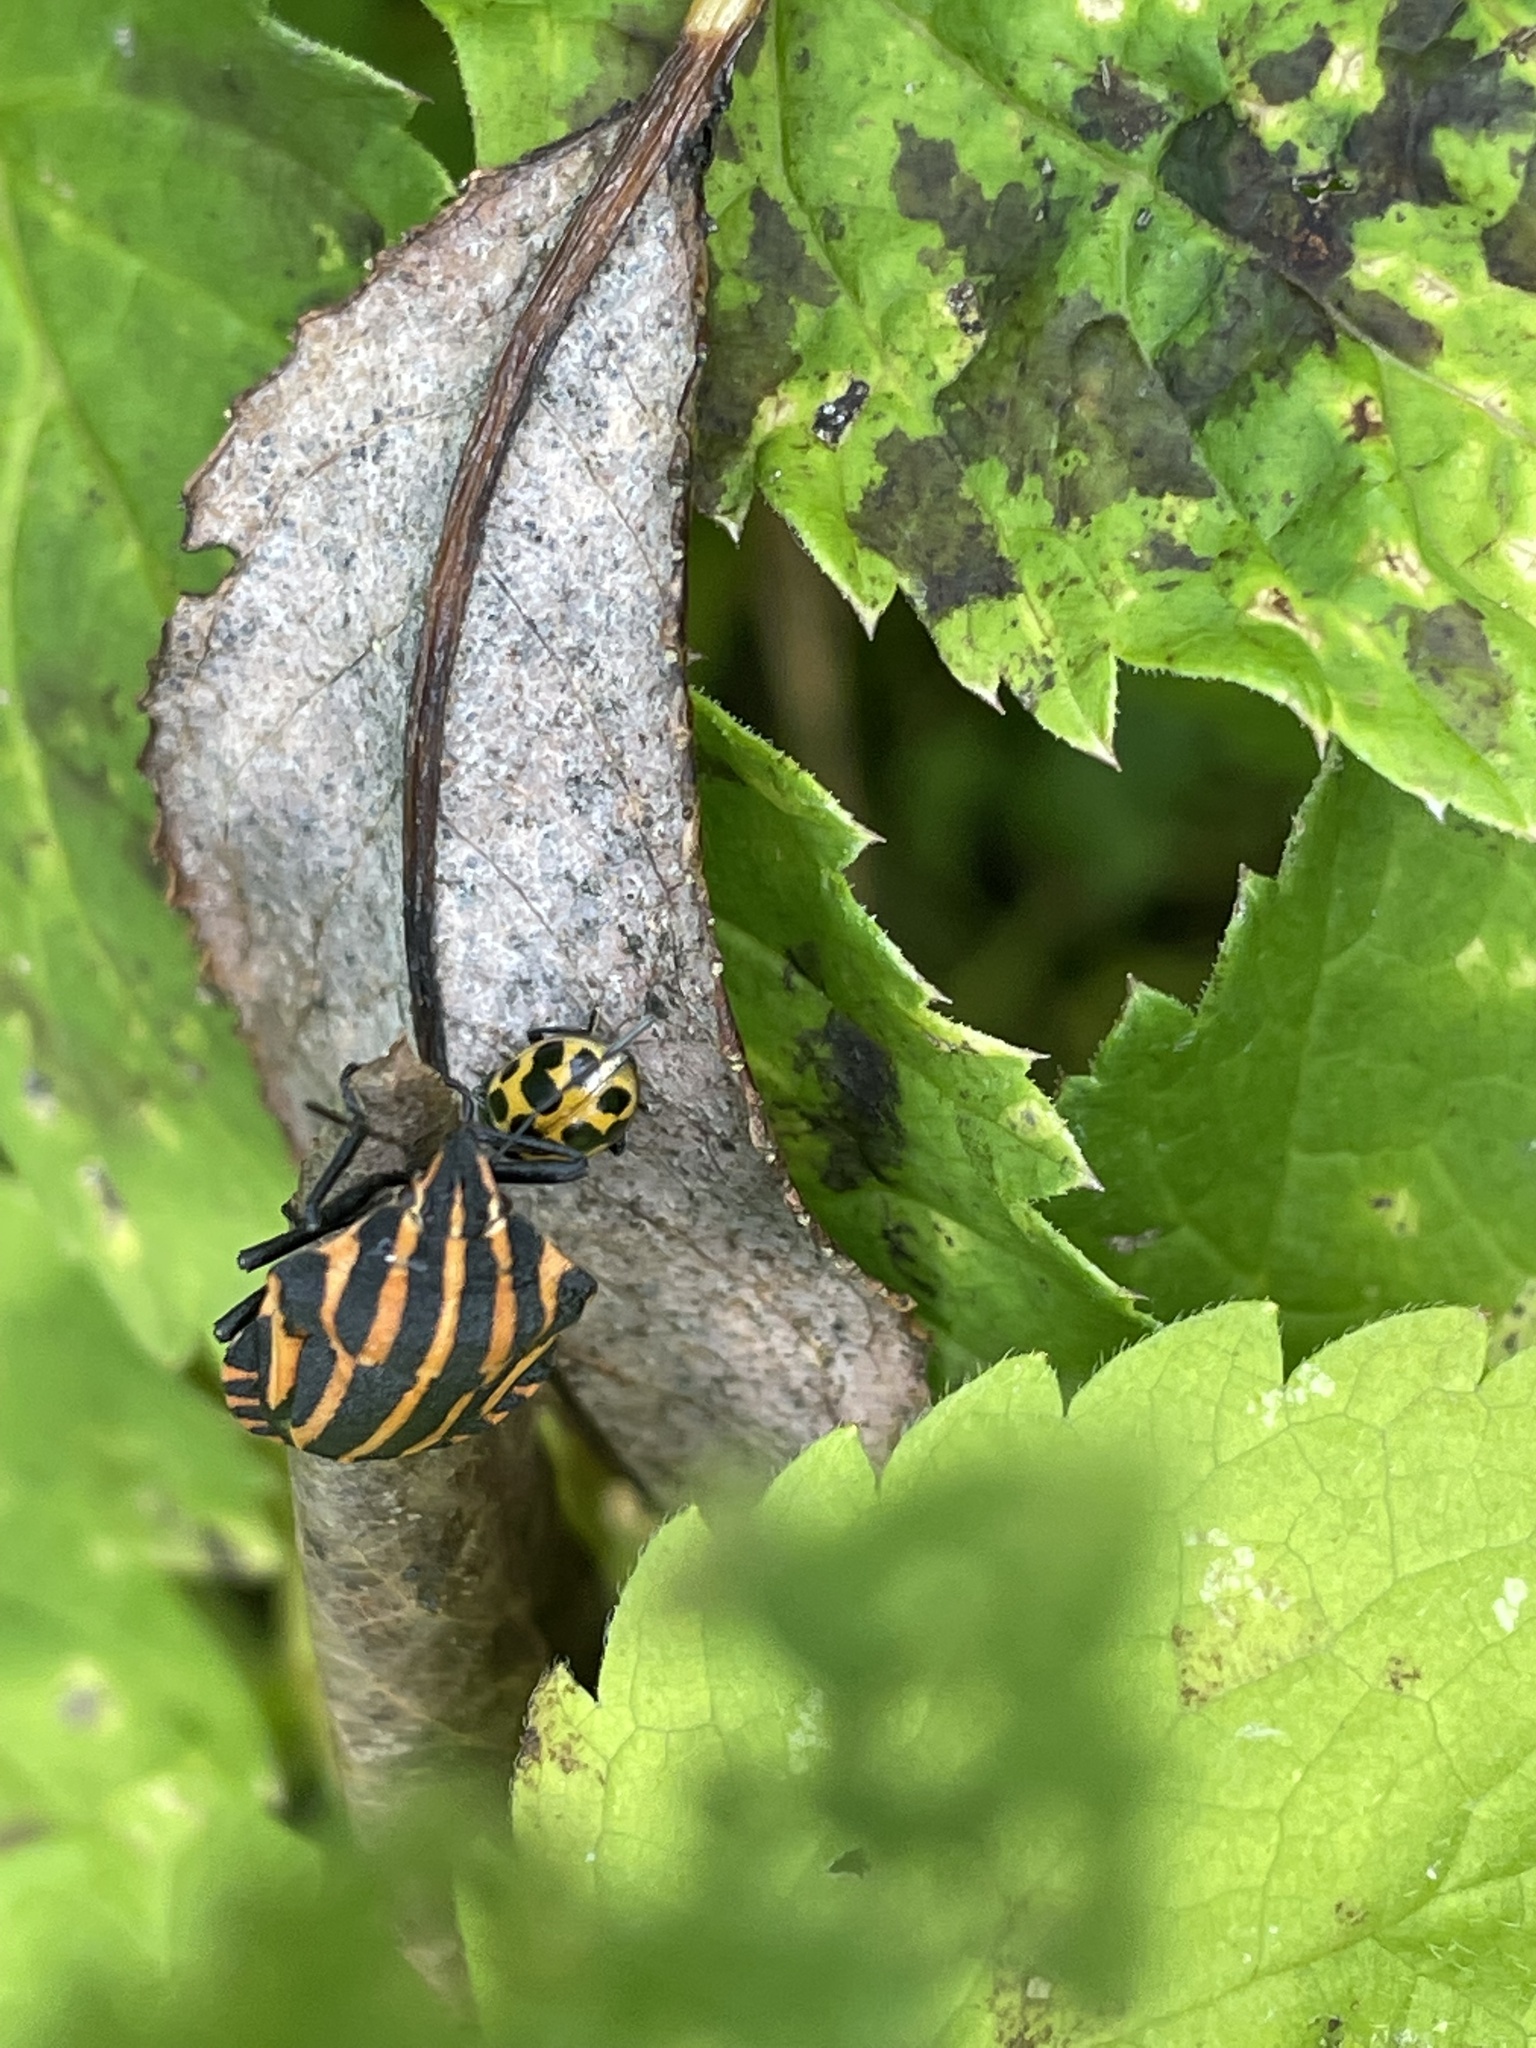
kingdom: Animalia
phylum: Arthropoda
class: Insecta
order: Hemiptera
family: Pentatomidae
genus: Graphosoma
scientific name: Graphosoma italicum
